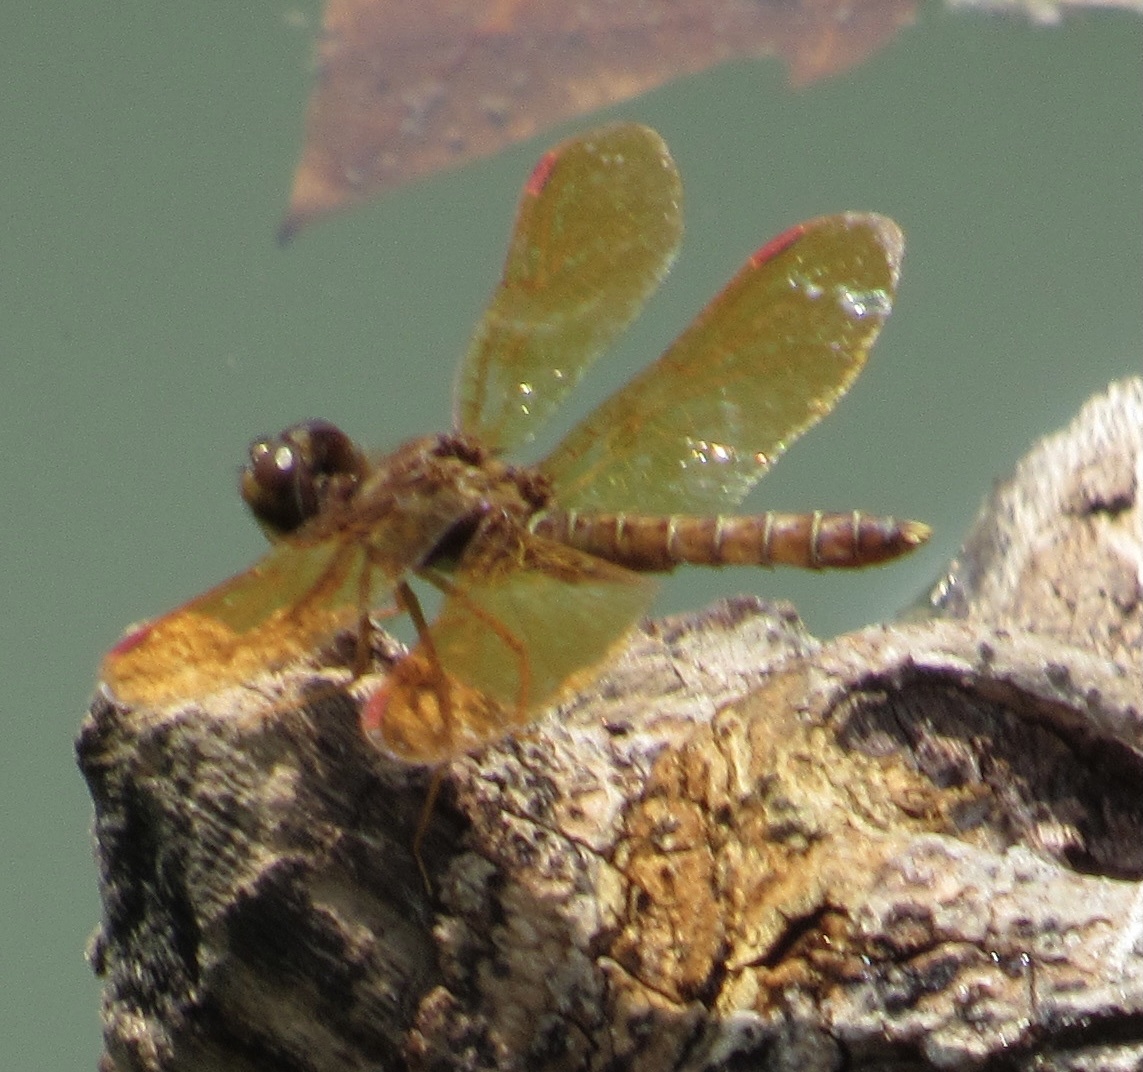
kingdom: Animalia
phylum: Arthropoda
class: Insecta
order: Odonata
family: Libellulidae
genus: Perithemis
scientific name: Perithemis tenera
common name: Eastern amberwing
